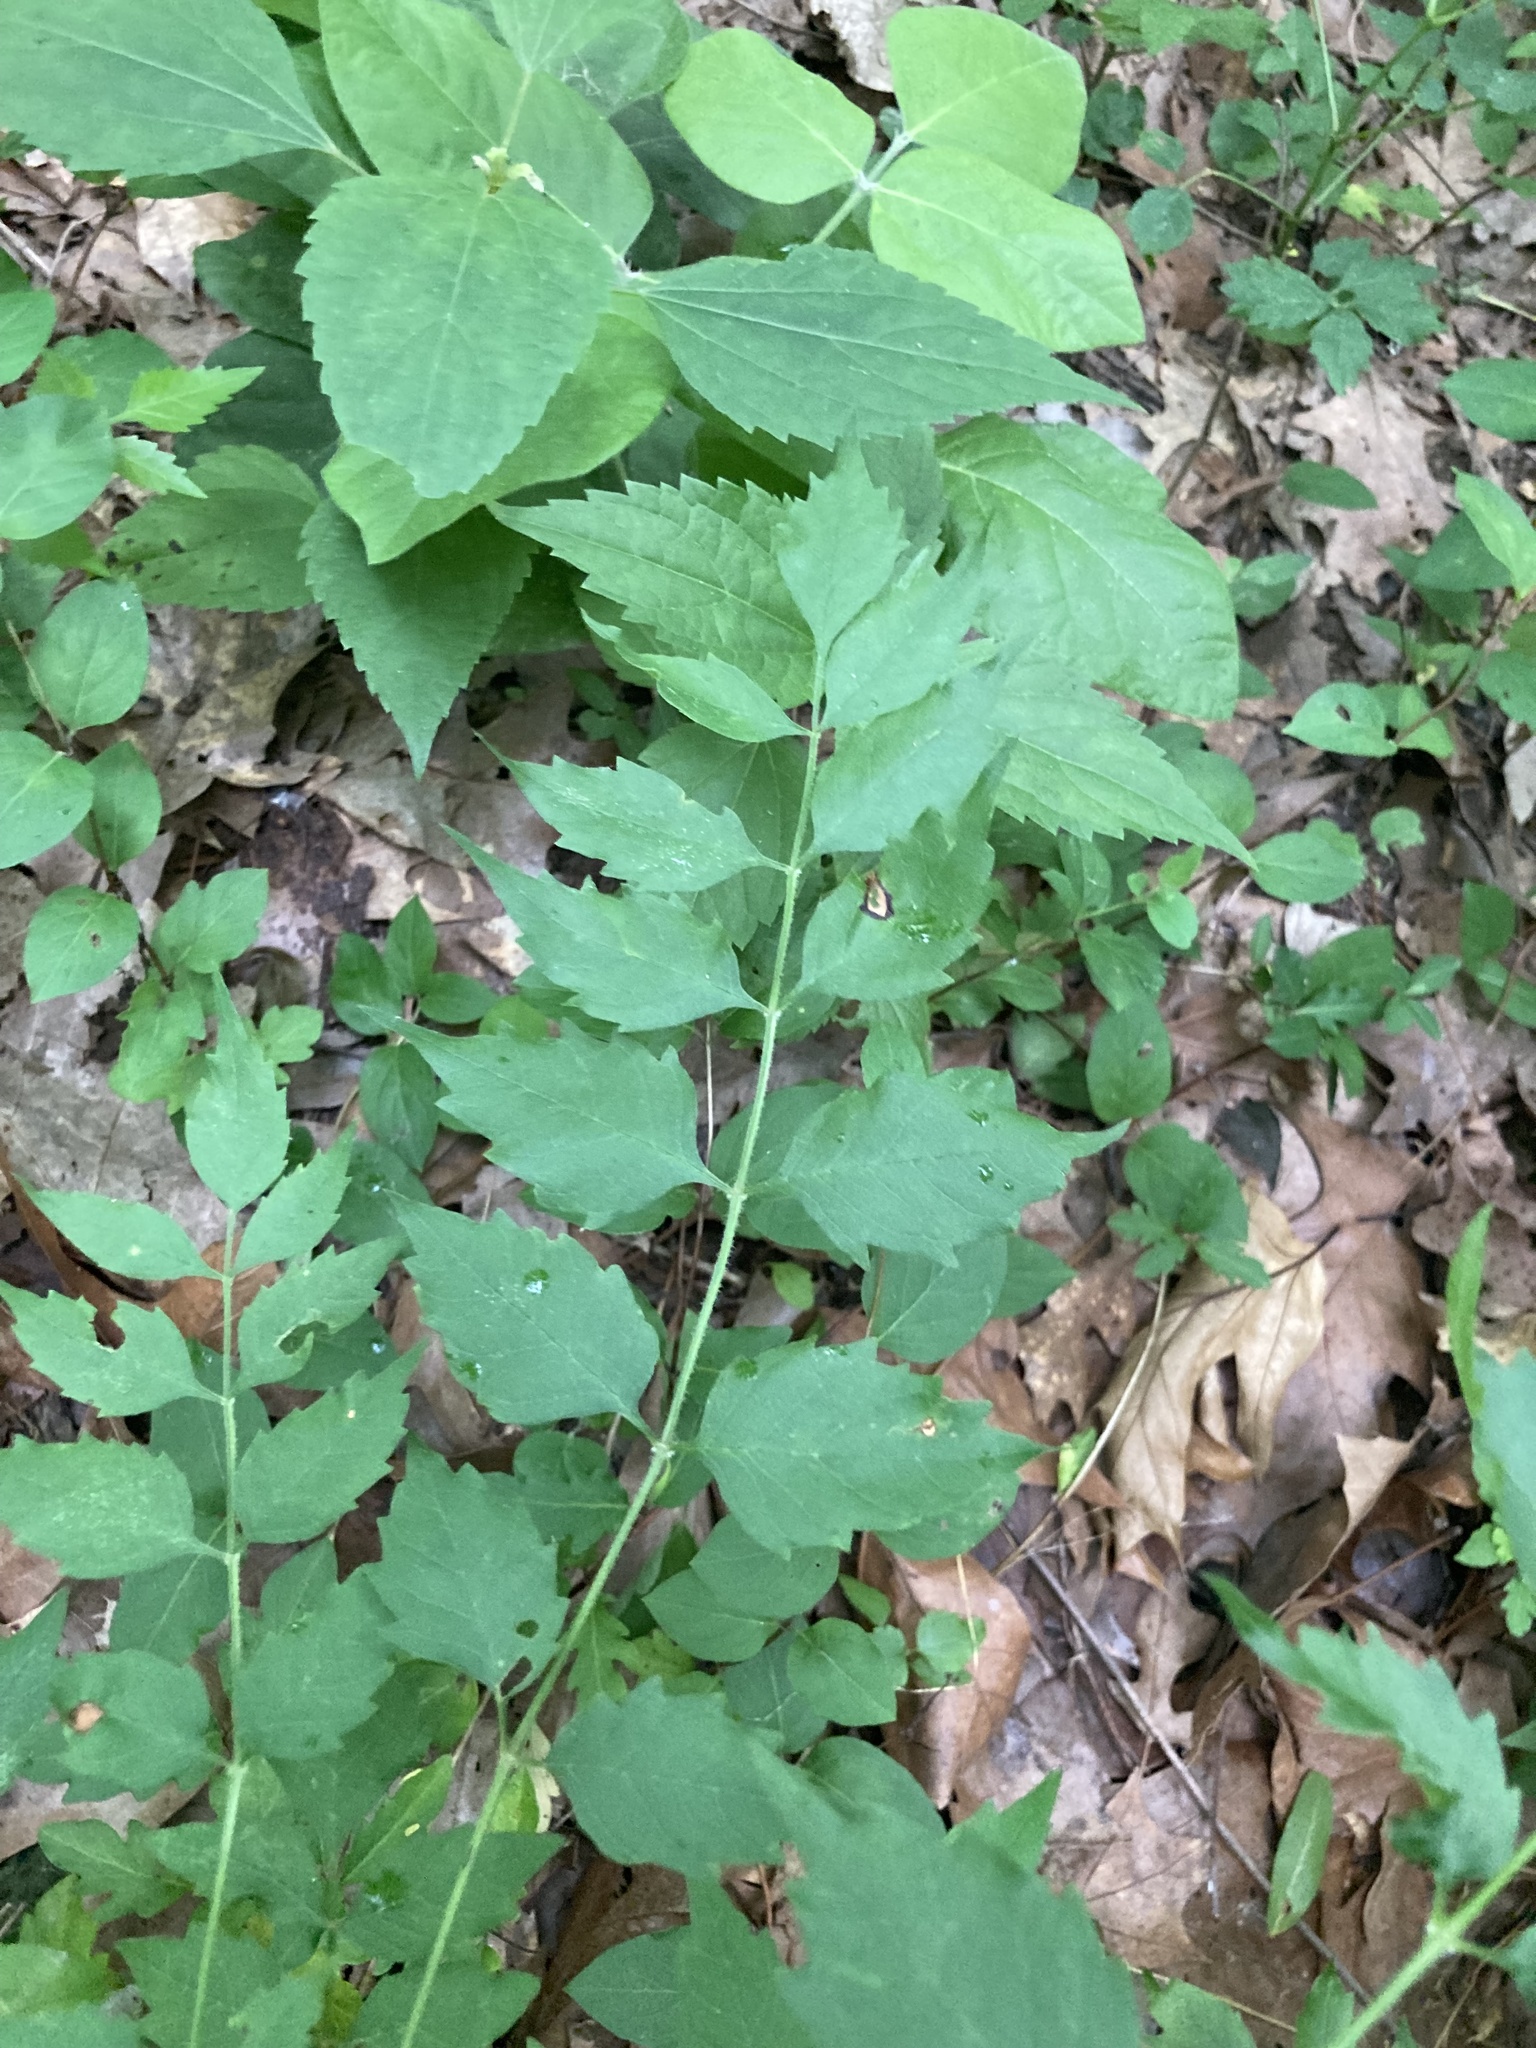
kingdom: Plantae
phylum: Tracheophyta
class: Magnoliopsida
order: Lamiales
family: Bignoniaceae
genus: Campsis
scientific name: Campsis radicans
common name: Trumpet-creeper
